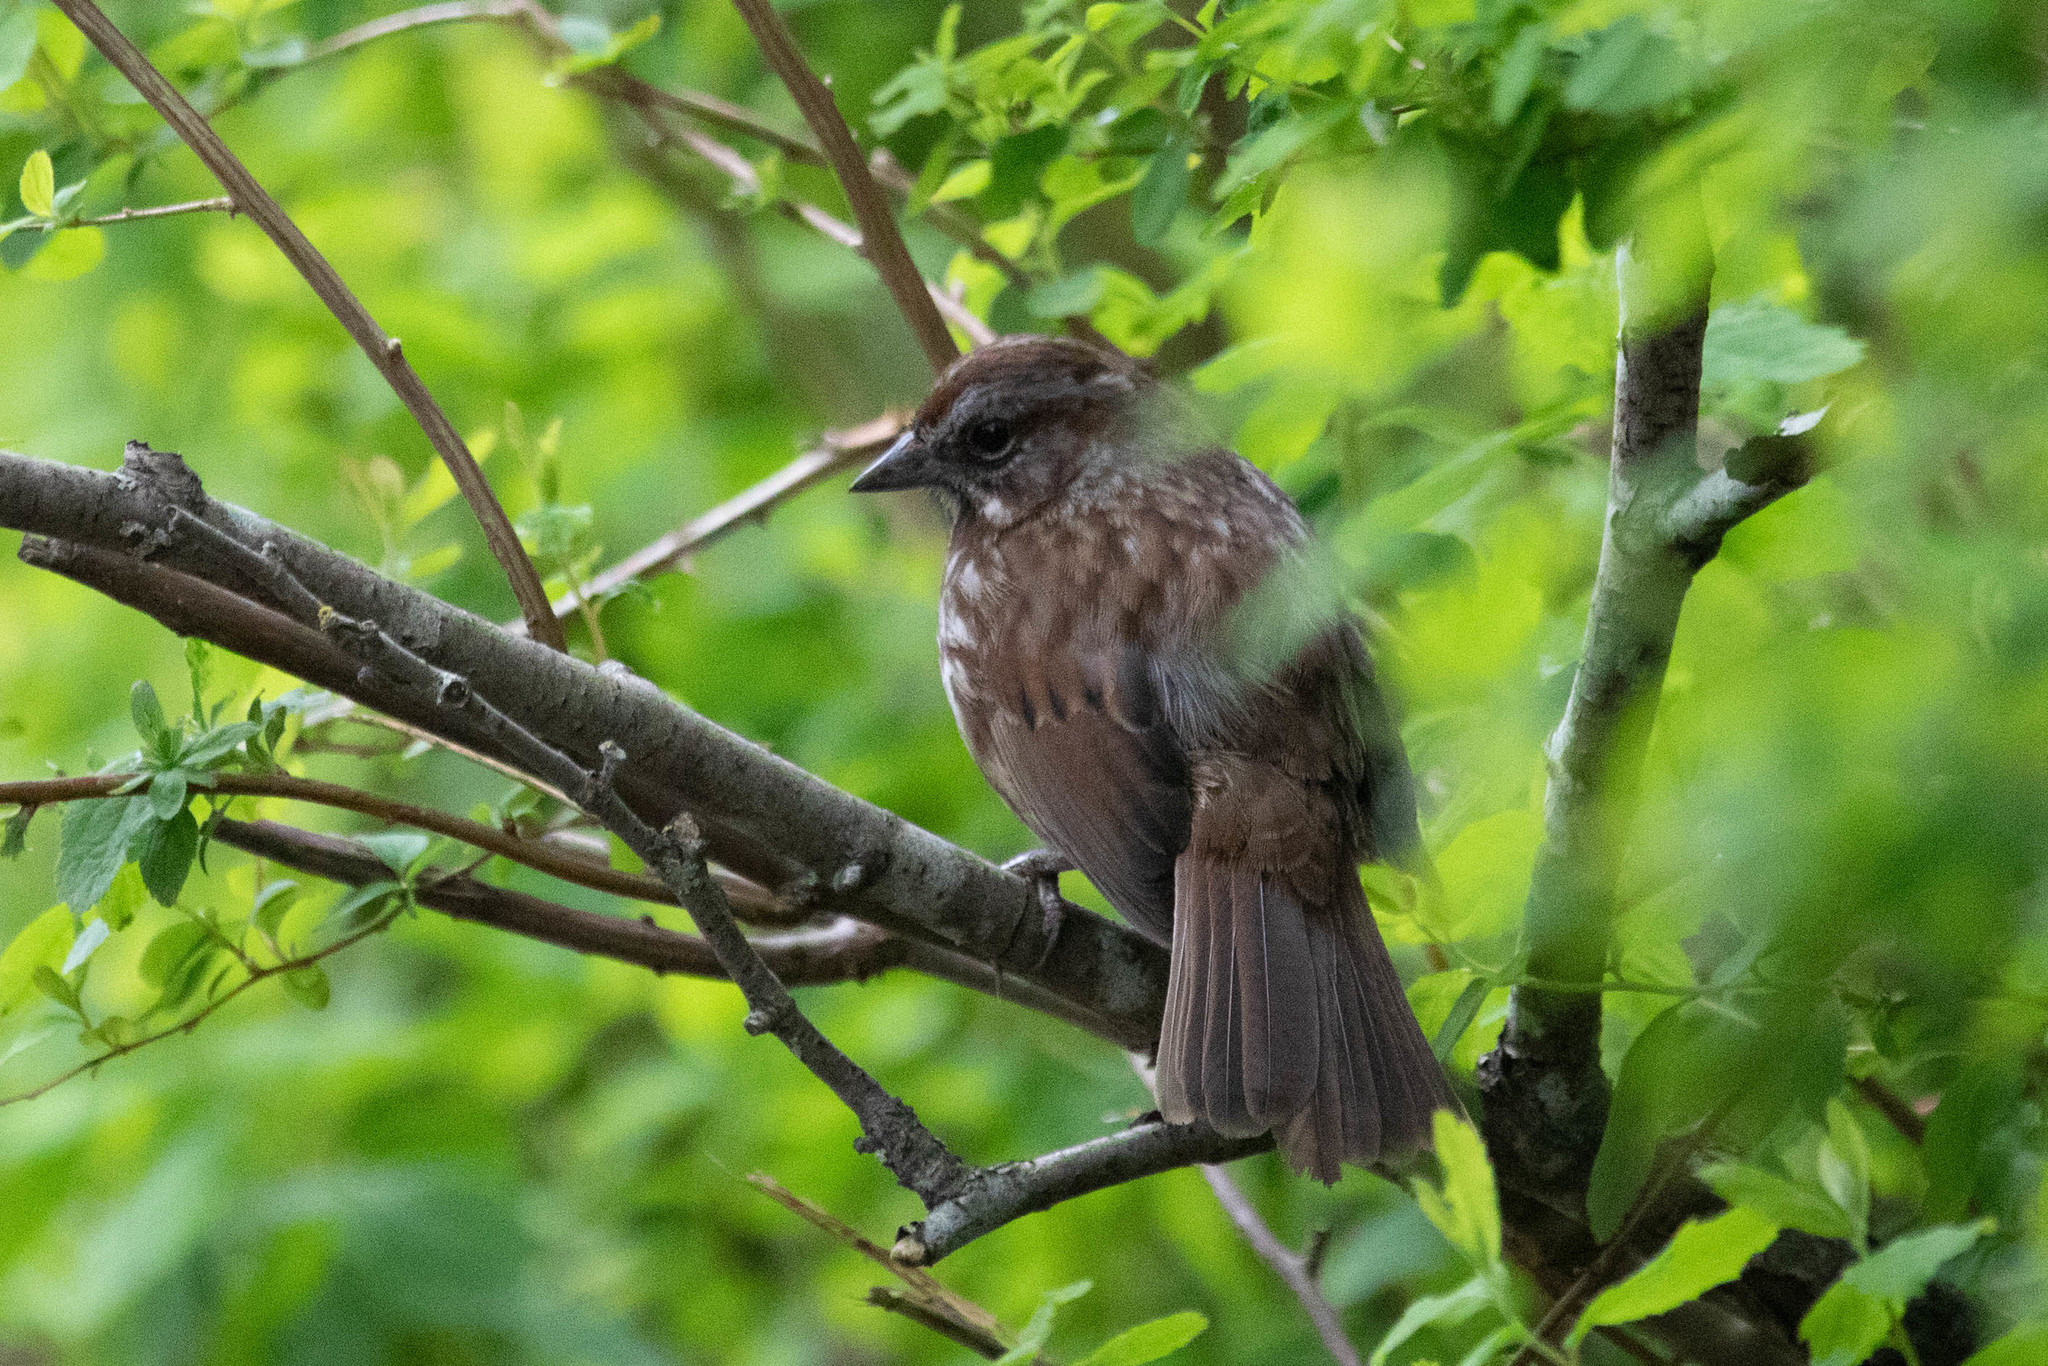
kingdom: Animalia
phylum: Chordata
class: Aves
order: Passeriformes
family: Passerellidae
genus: Melospiza
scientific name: Melospiza melodia
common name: Song sparrow
